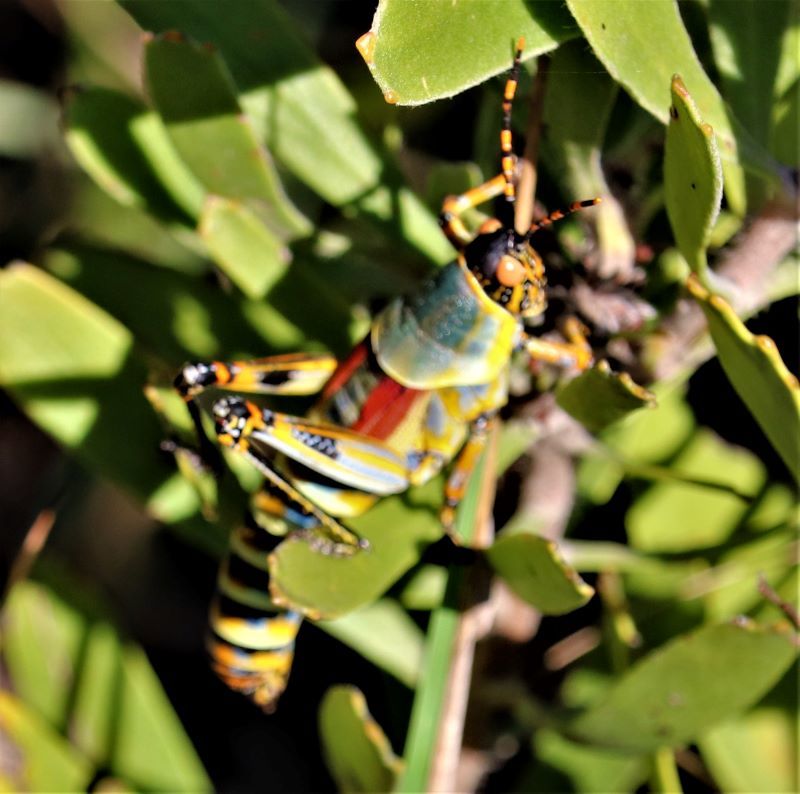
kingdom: Animalia
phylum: Arthropoda
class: Insecta
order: Orthoptera
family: Pyrgomorphidae
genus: Zonocerus
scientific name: Zonocerus elegans
